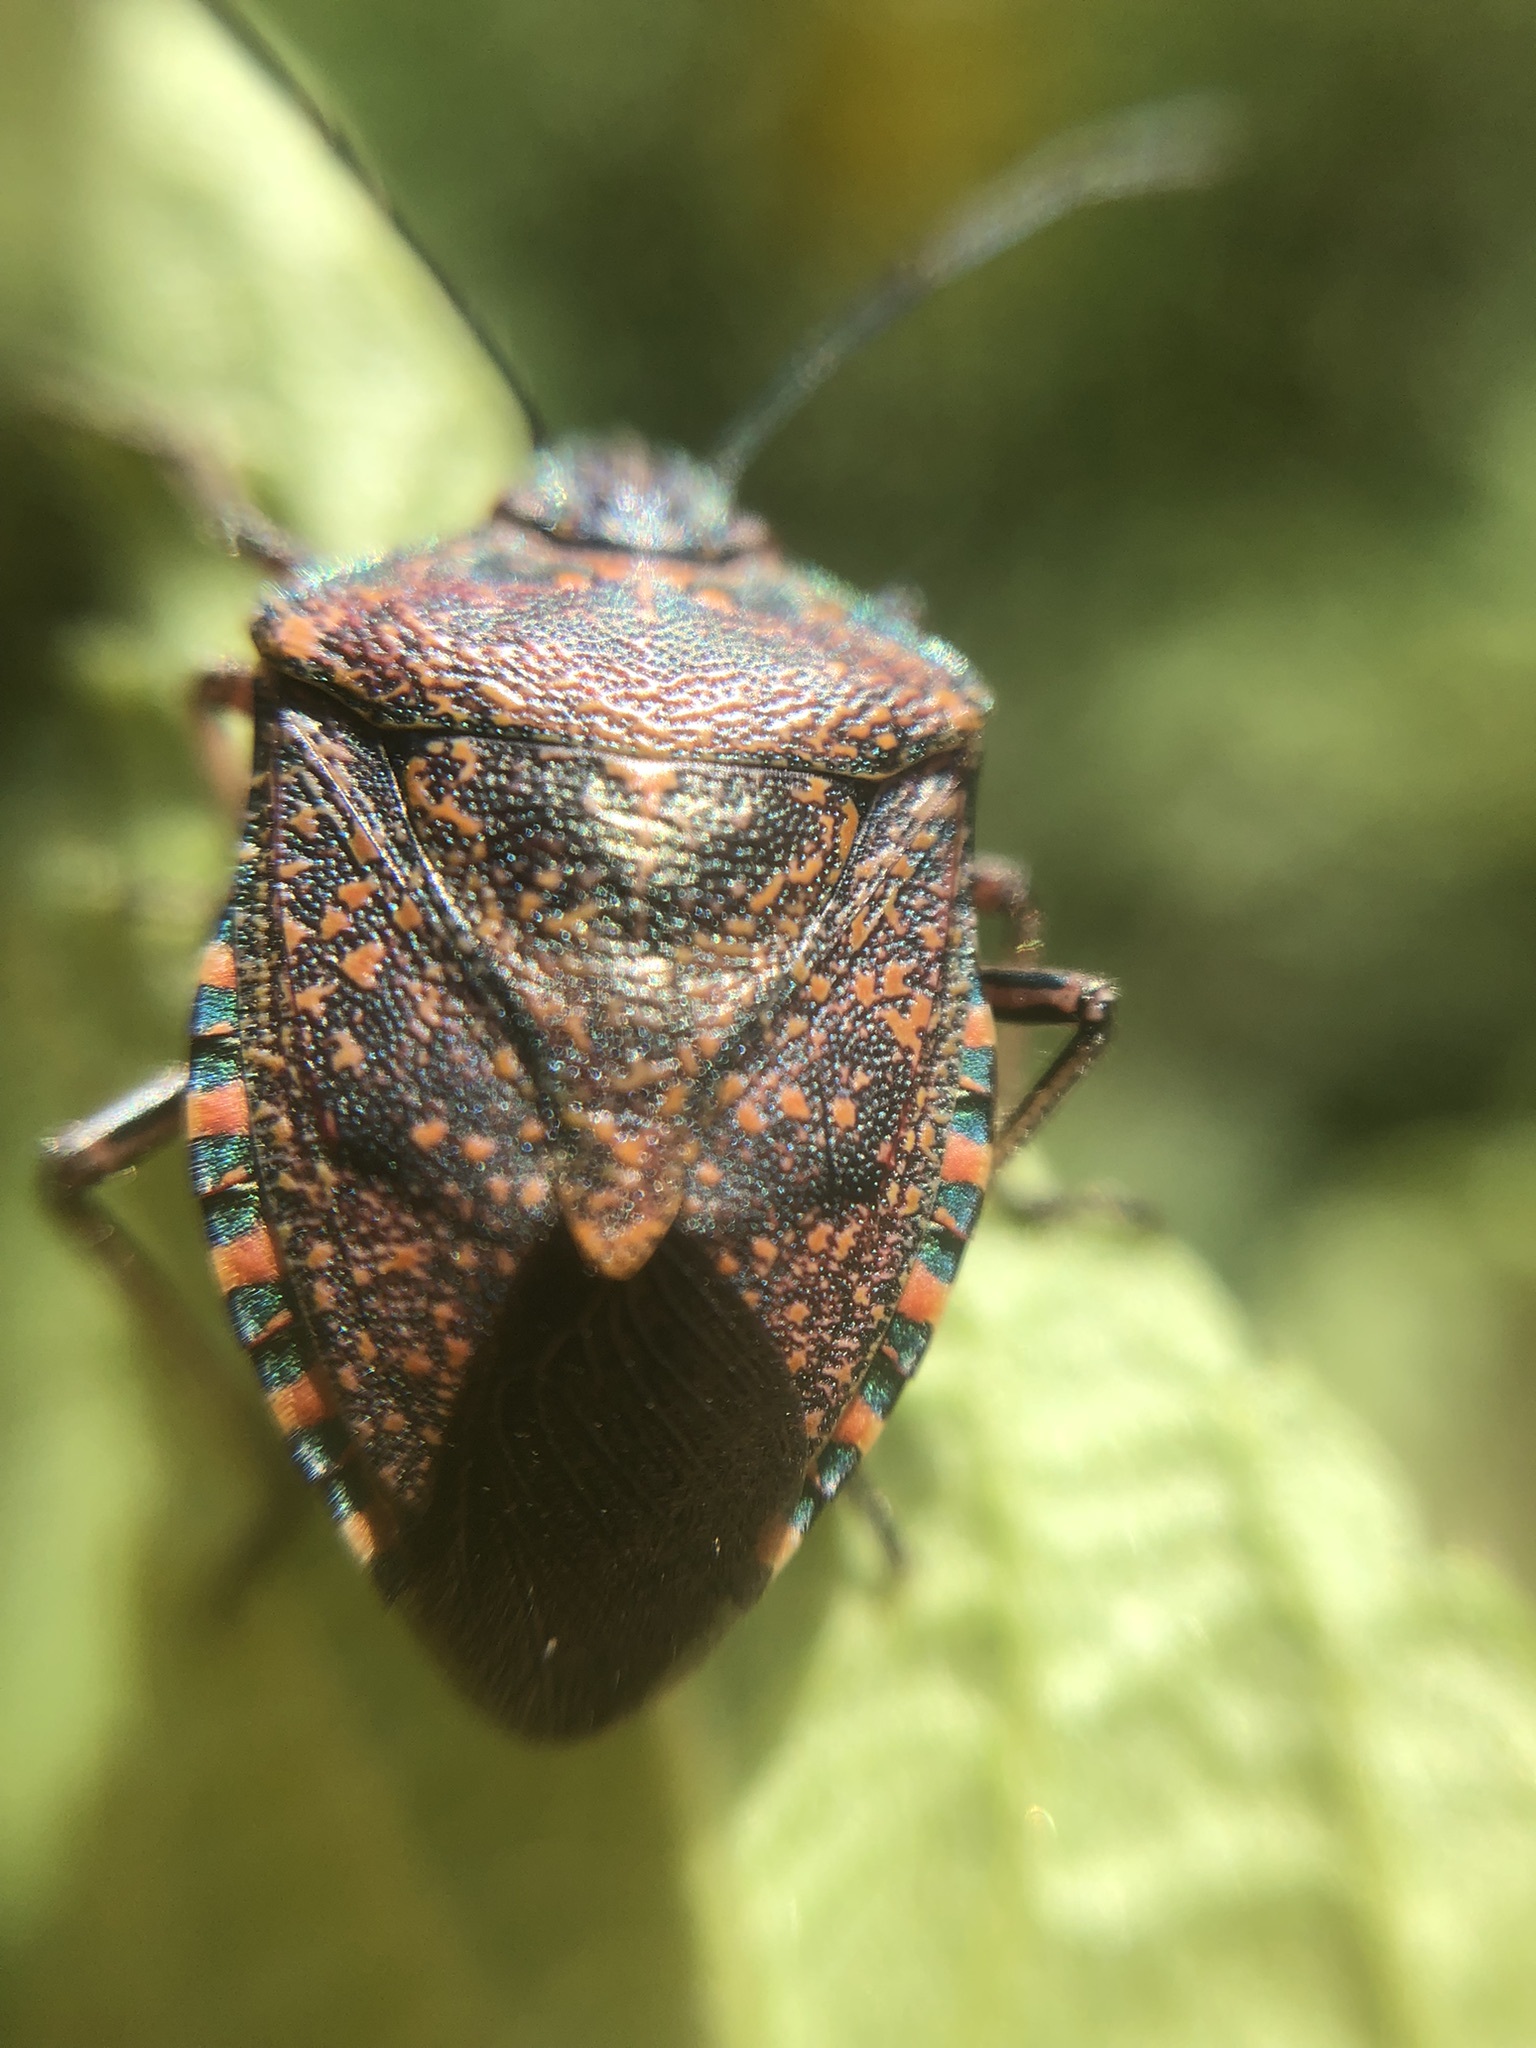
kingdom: Animalia
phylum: Arthropoda
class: Insecta
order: Hemiptera
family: Pentatomidae
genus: Pellaea
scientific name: Pellaea stictica
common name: Stink bug
